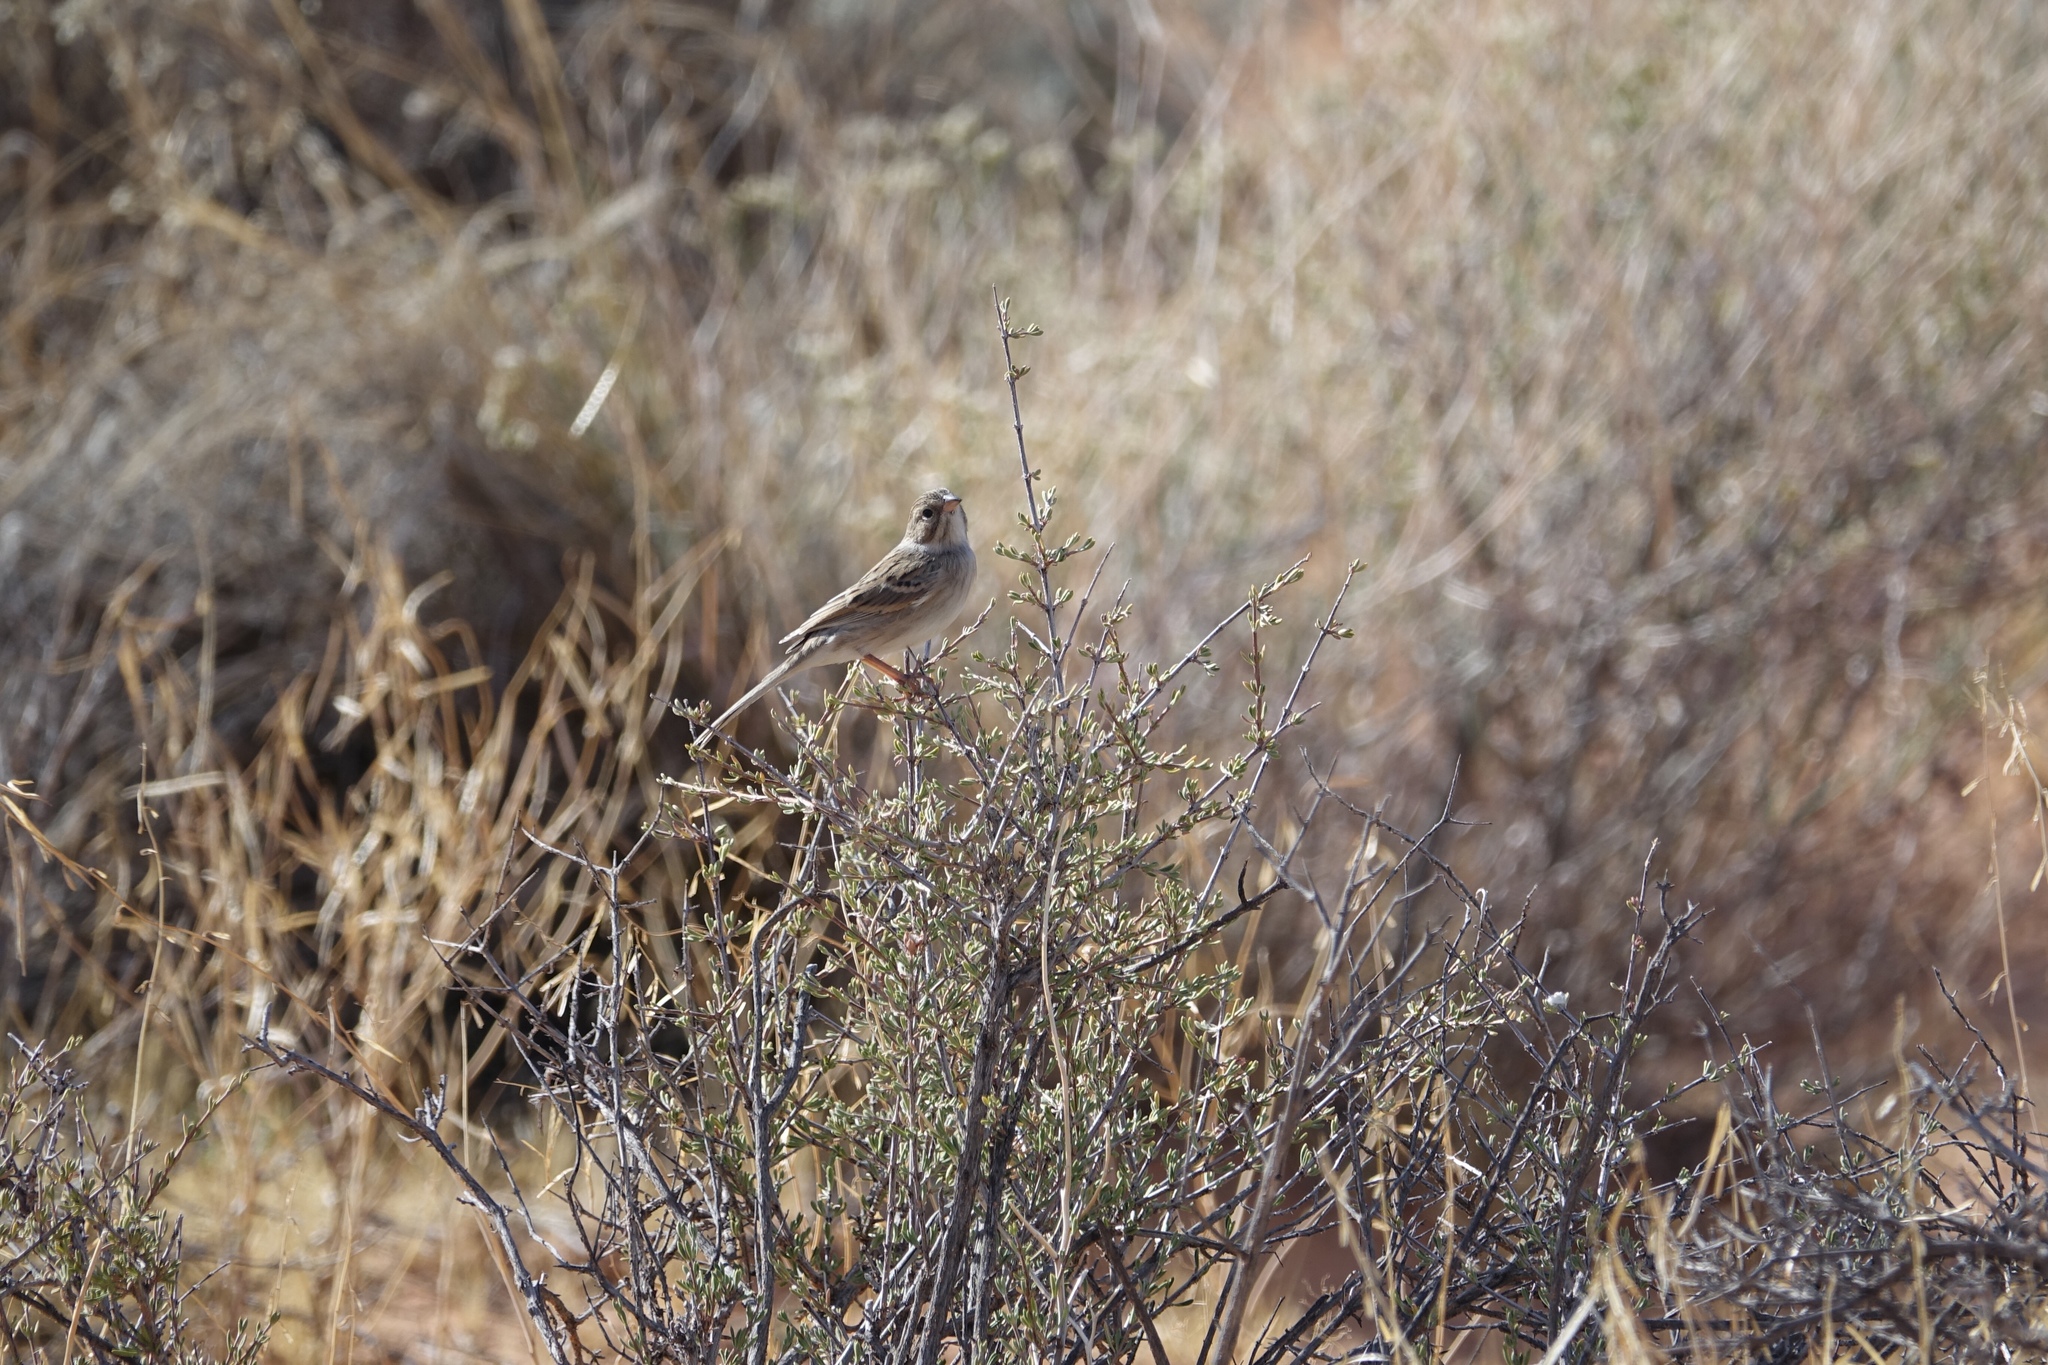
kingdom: Animalia
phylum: Chordata
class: Aves
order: Passeriformes
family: Passerellidae
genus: Spizella
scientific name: Spizella breweri
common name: Brewer's sparrow
